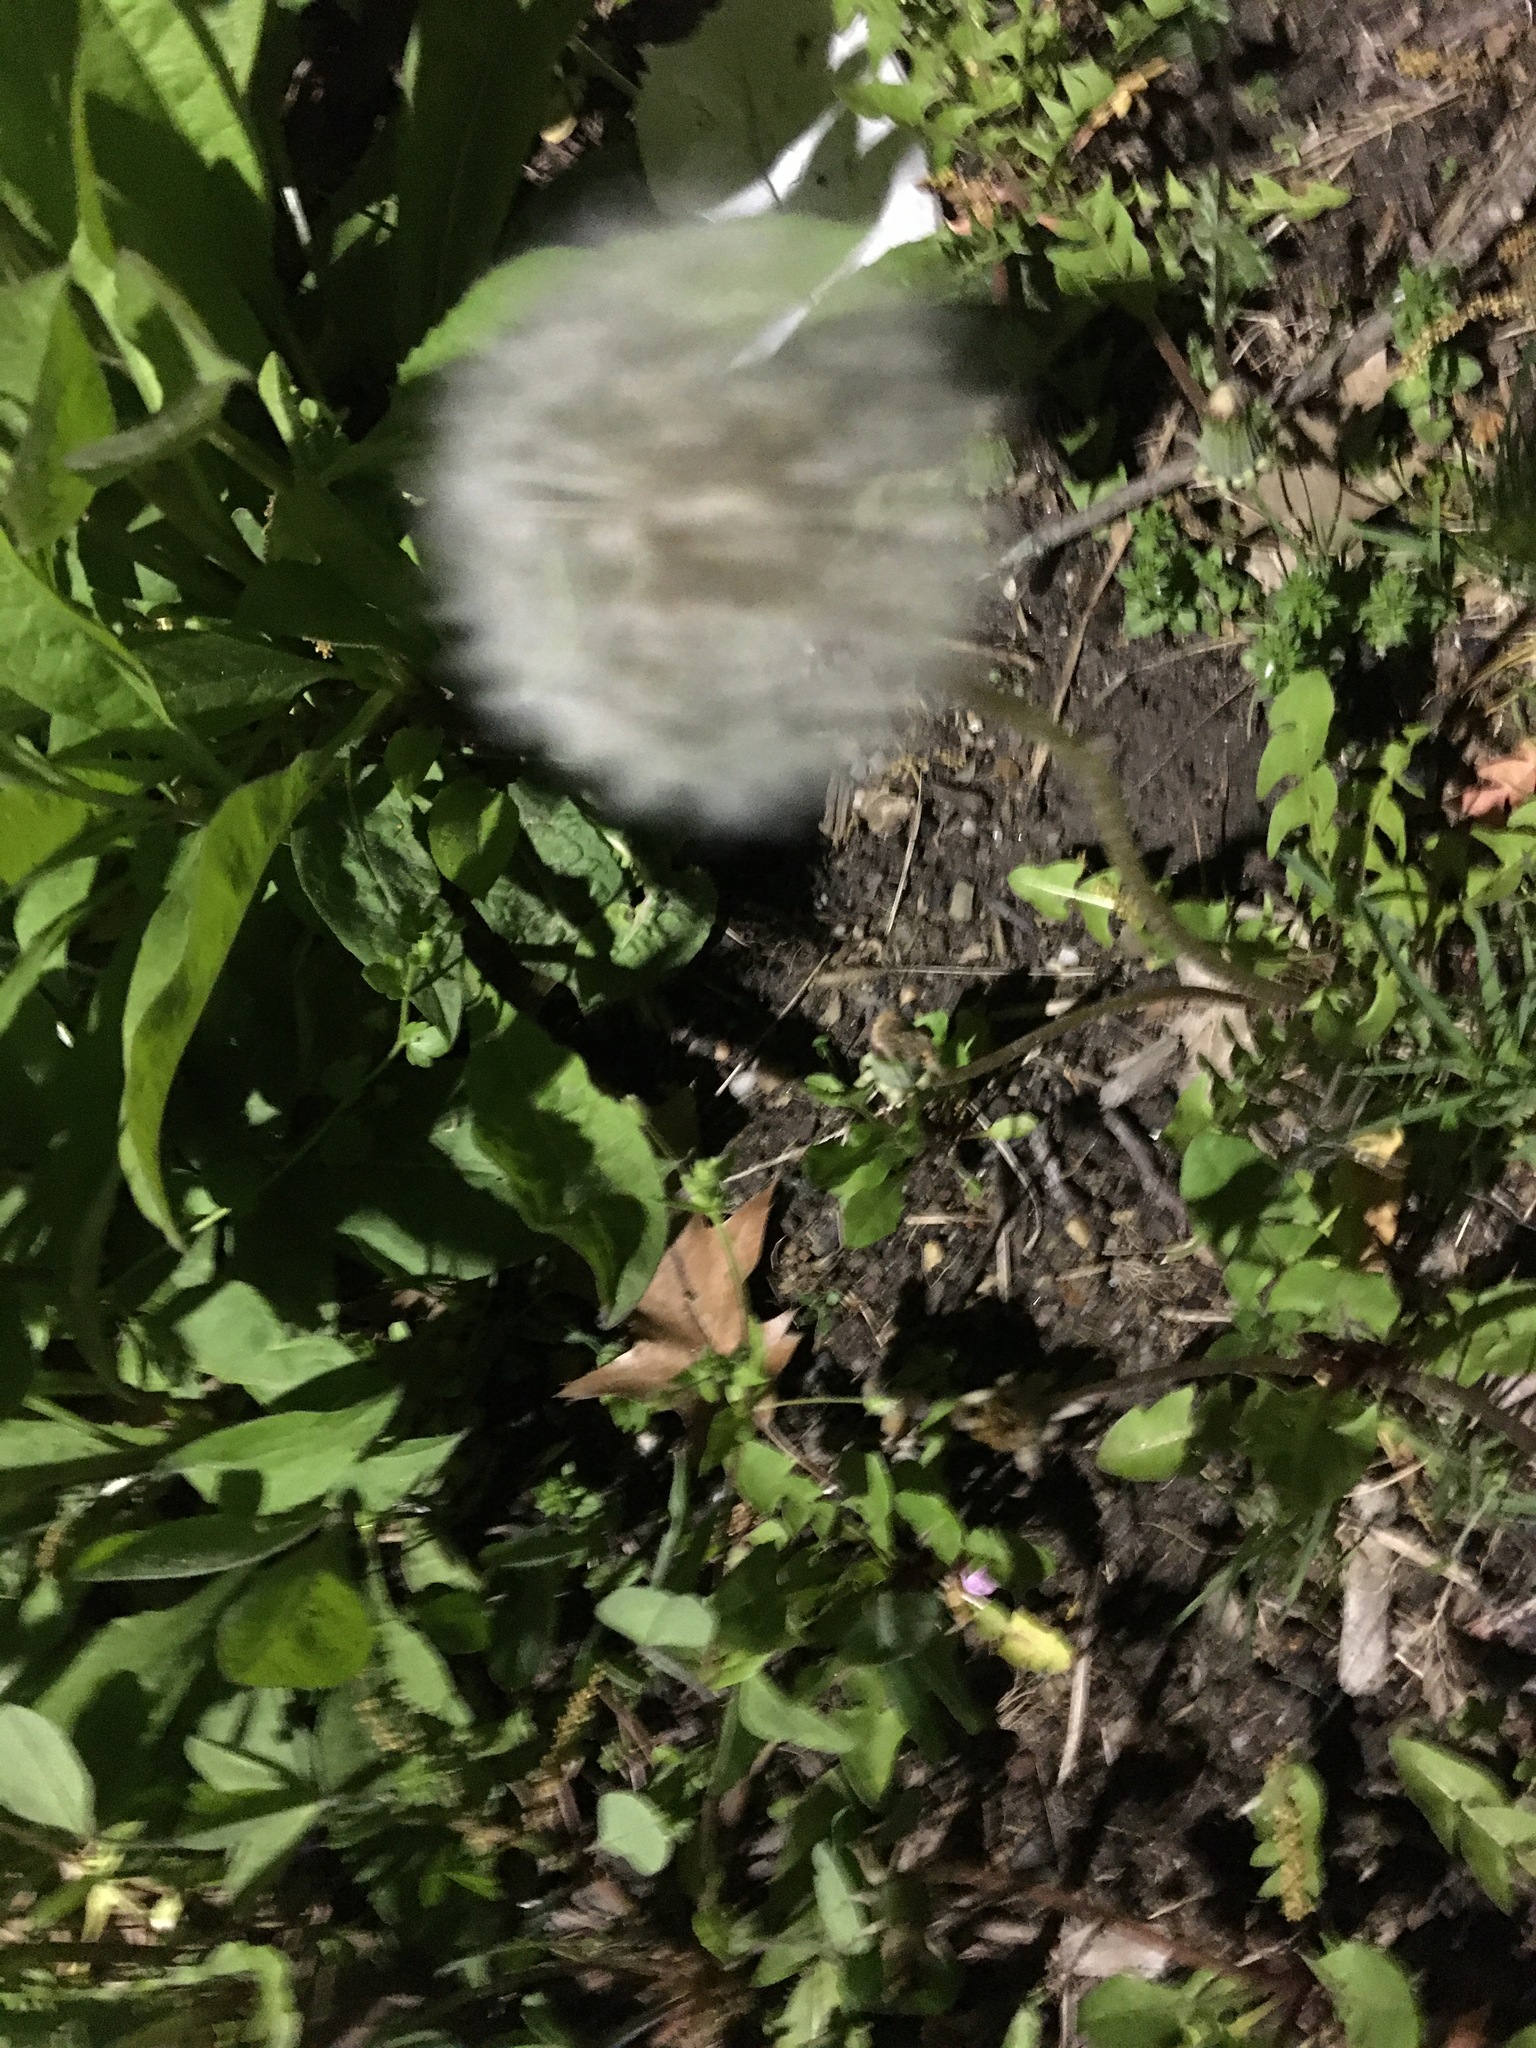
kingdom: Plantae
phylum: Tracheophyta
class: Magnoliopsida
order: Asterales
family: Asteraceae
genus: Taraxacum
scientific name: Taraxacum officinale
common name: Common dandelion
